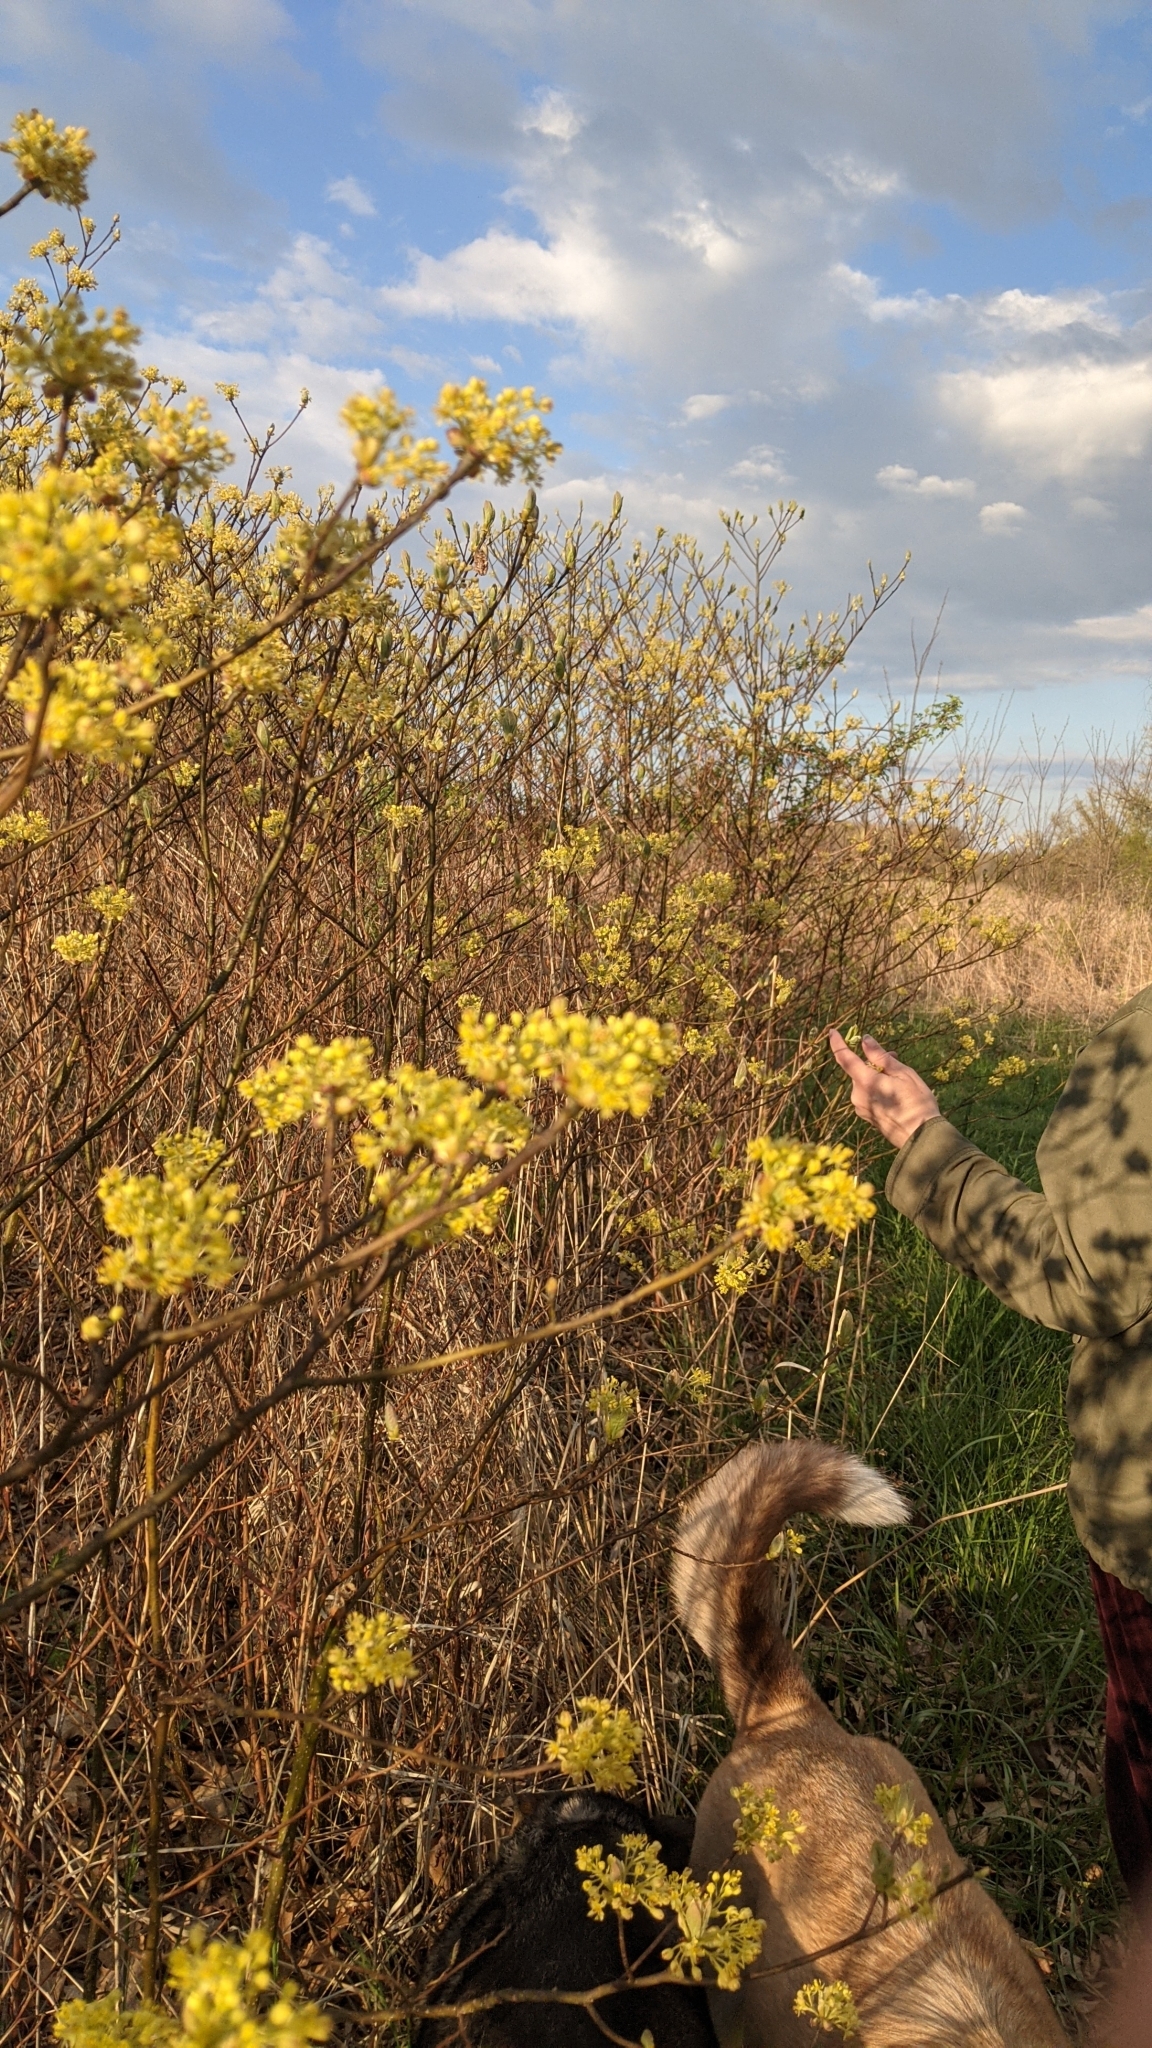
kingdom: Plantae
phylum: Tracheophyta
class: Magnoliopsida
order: Laurales
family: Lauraceae
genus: Sassafras
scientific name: Sassafras albidum
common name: Sassafras
